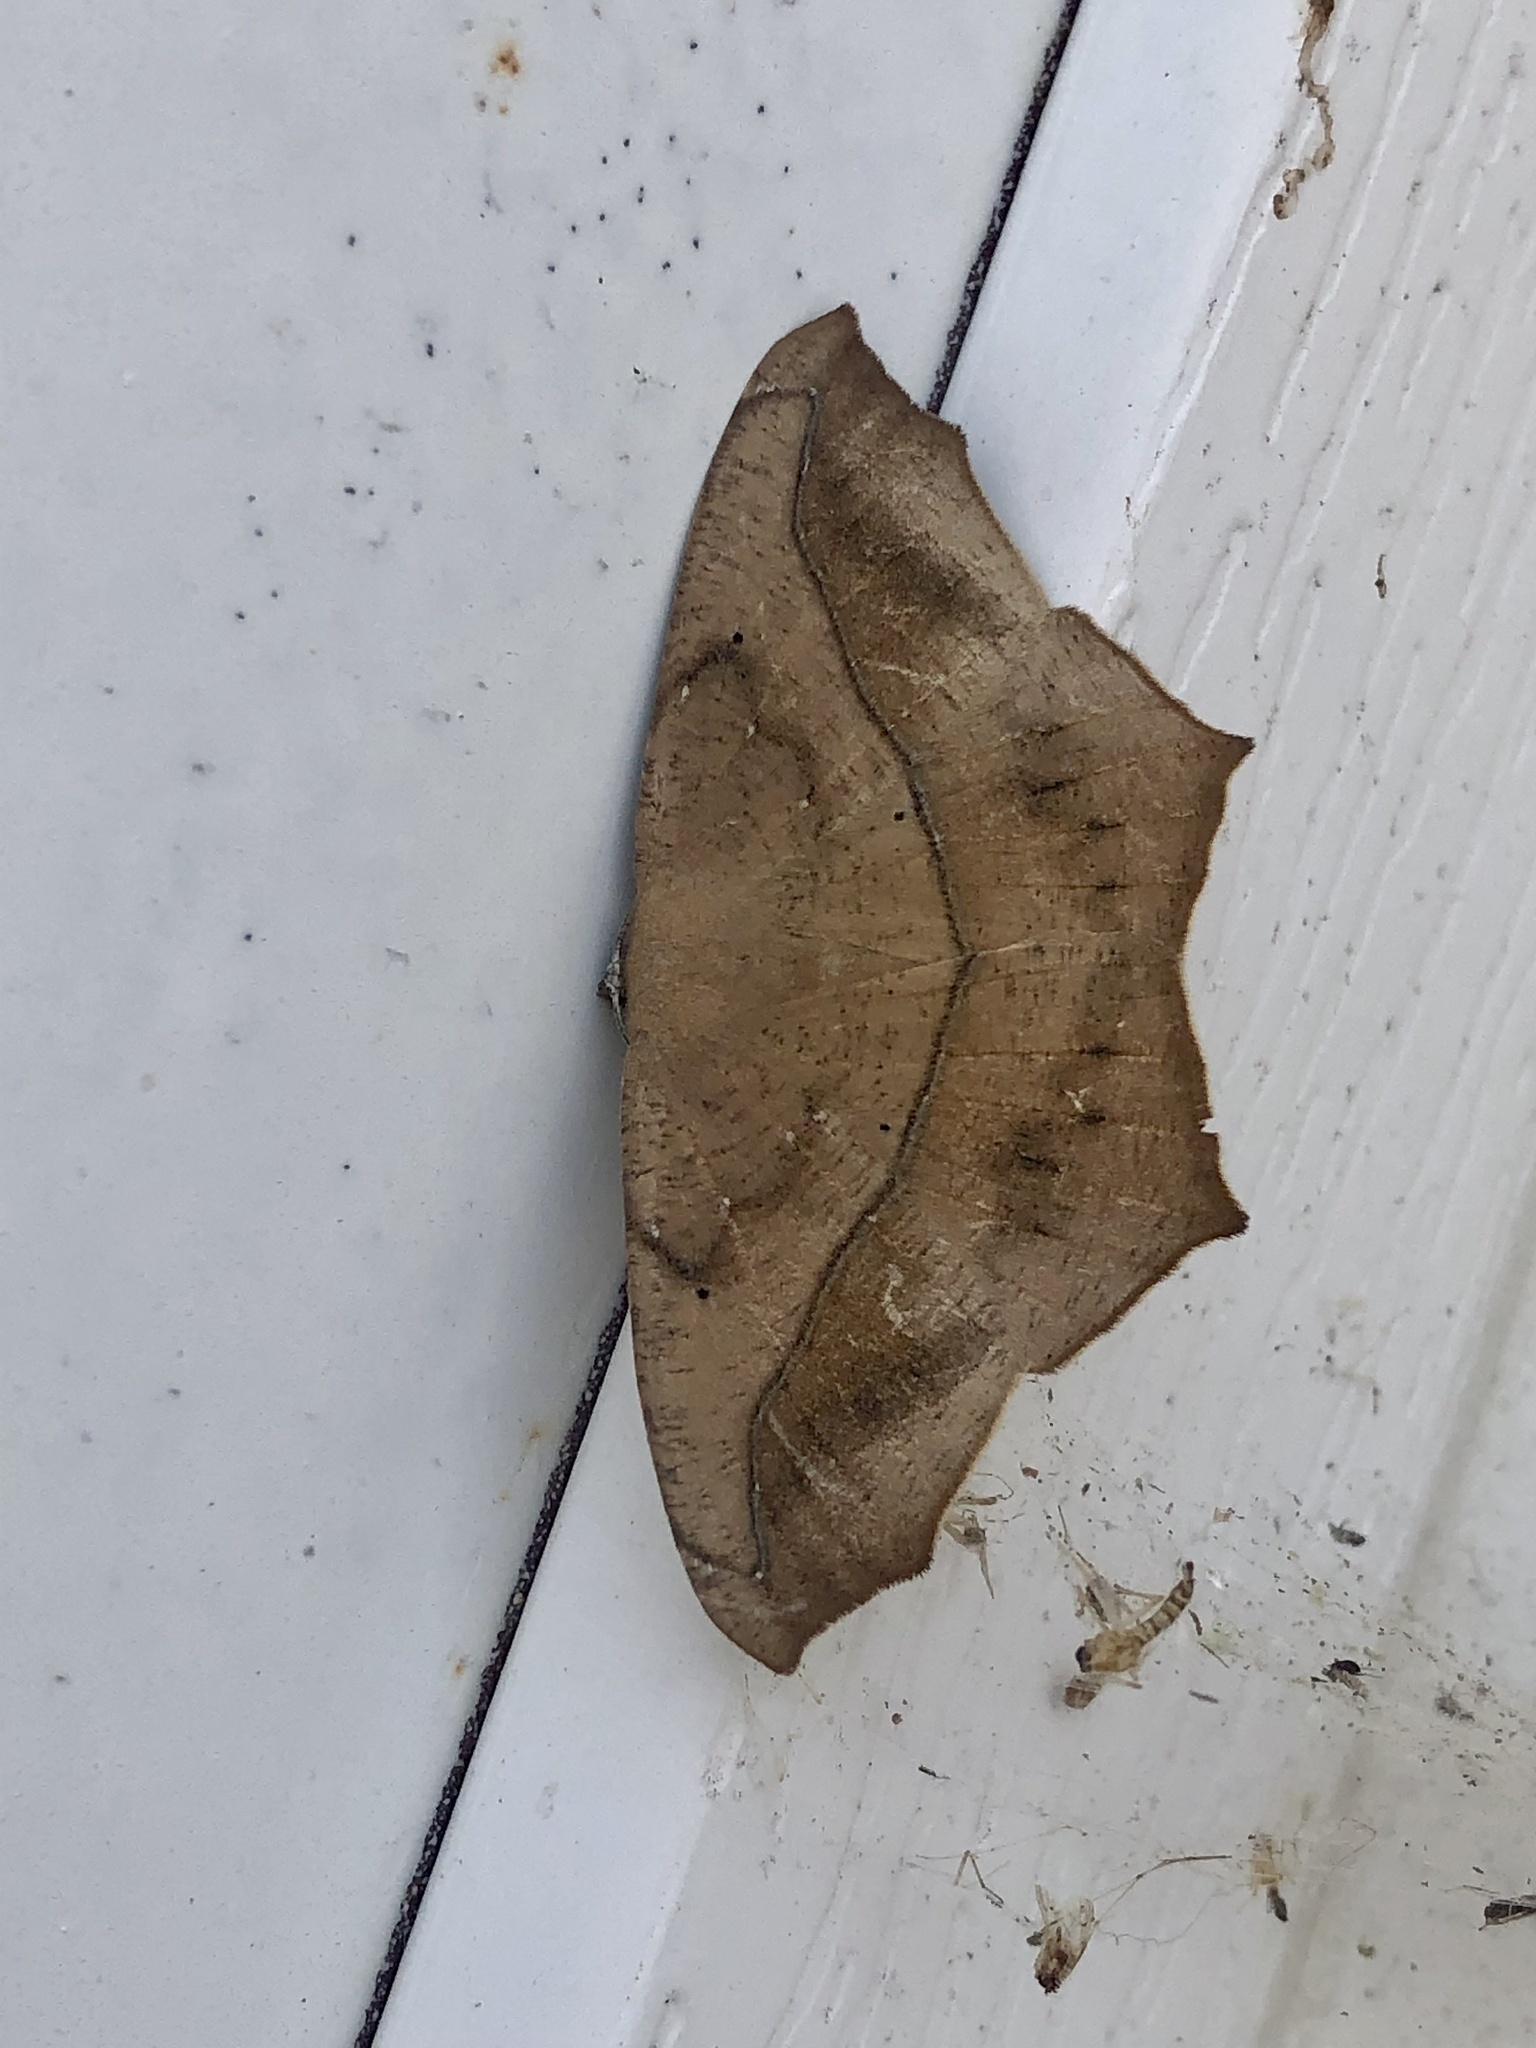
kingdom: Animalia
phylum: Arthropoda
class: Insecta
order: Lepidoptera
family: Geometridae
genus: Prochoerodes
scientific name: Prochoerodes lineola
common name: Large maple spanworm
